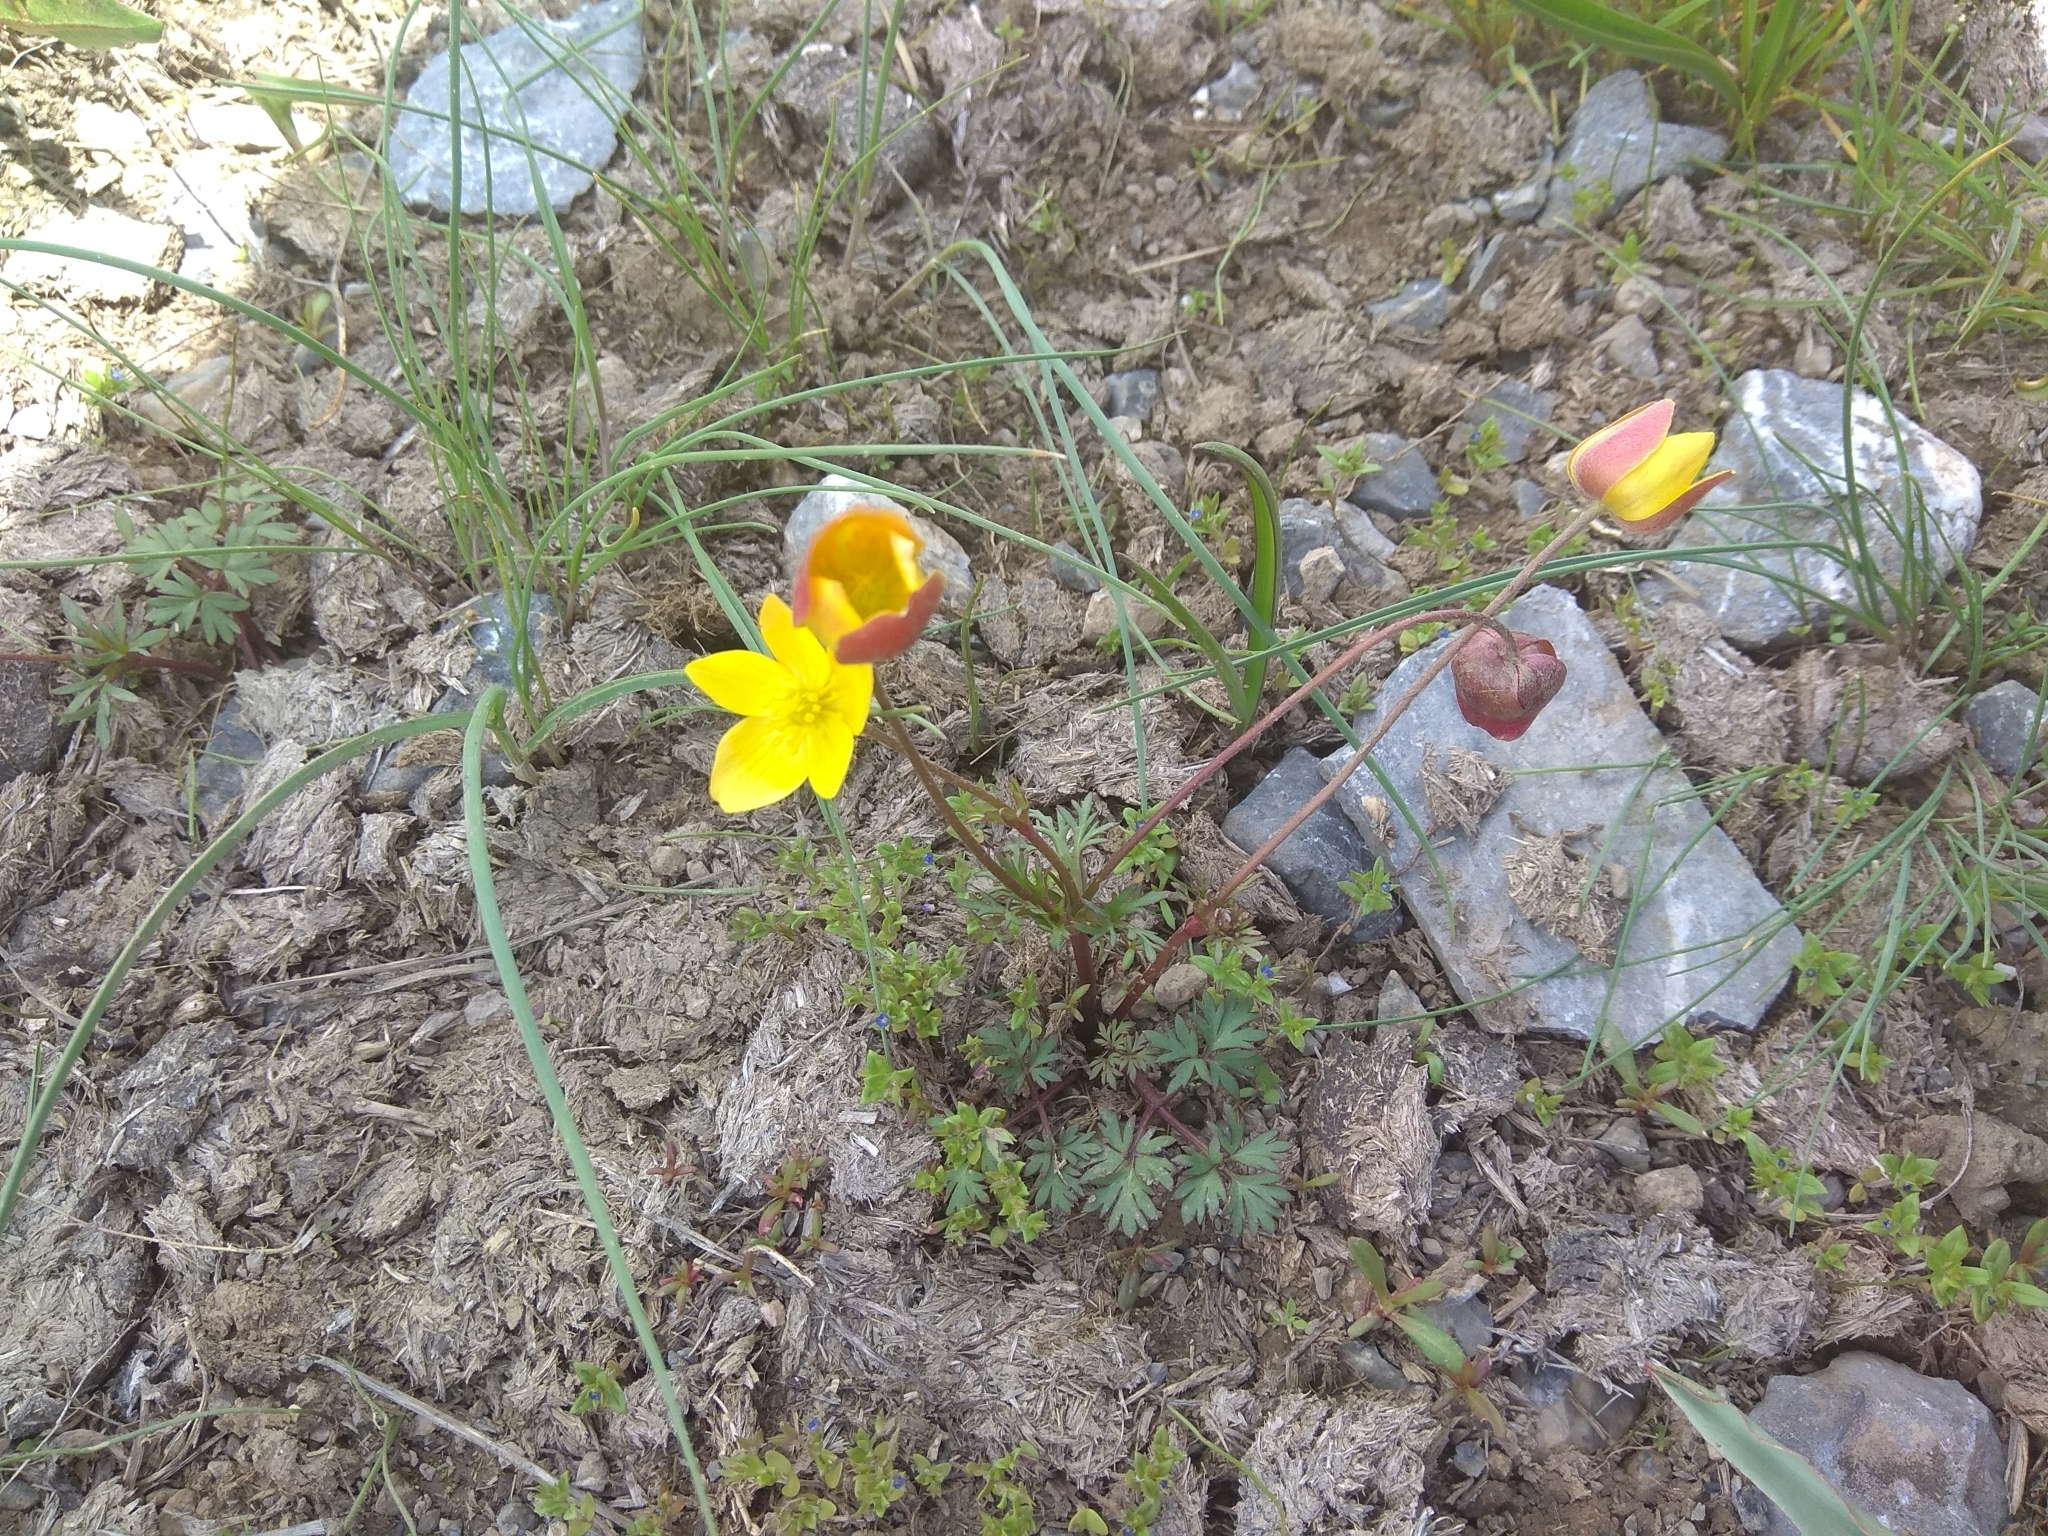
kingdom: Plantae
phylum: Tracheophyta
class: Magnoliopsida
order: Ranunculales
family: Ranunculaceae
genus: Anemone
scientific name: Anemone biflora
